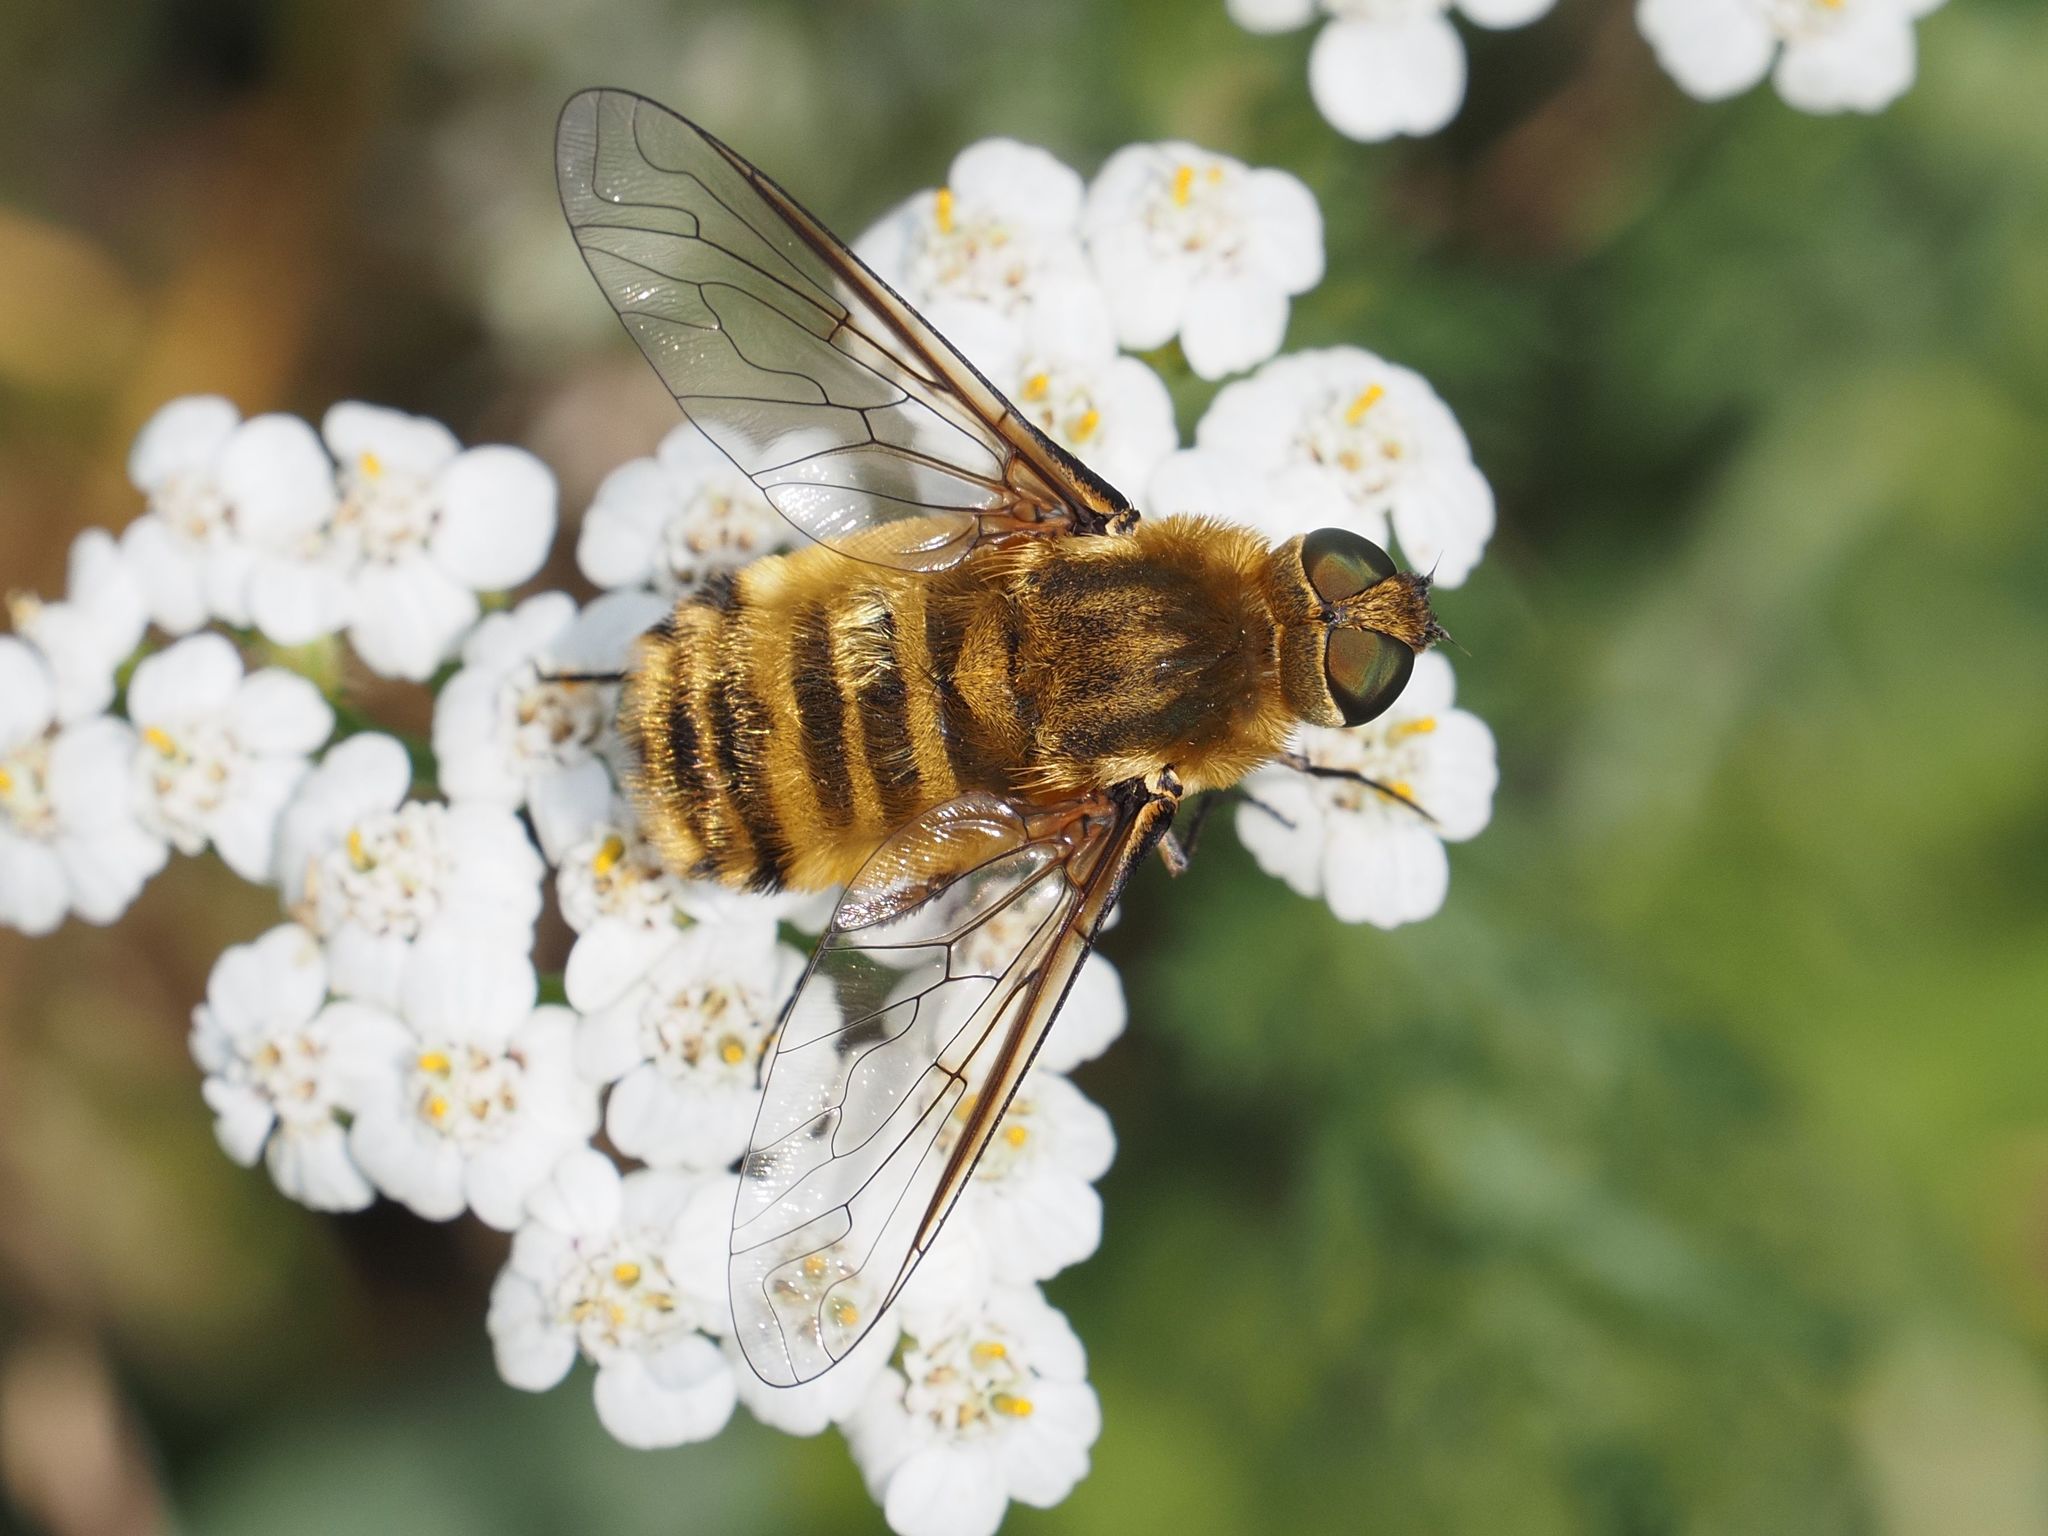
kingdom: Animalia
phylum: Arthropoda
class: Insecta
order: Diptera
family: Bombyliidae
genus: Villa
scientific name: Villa hottentotta
